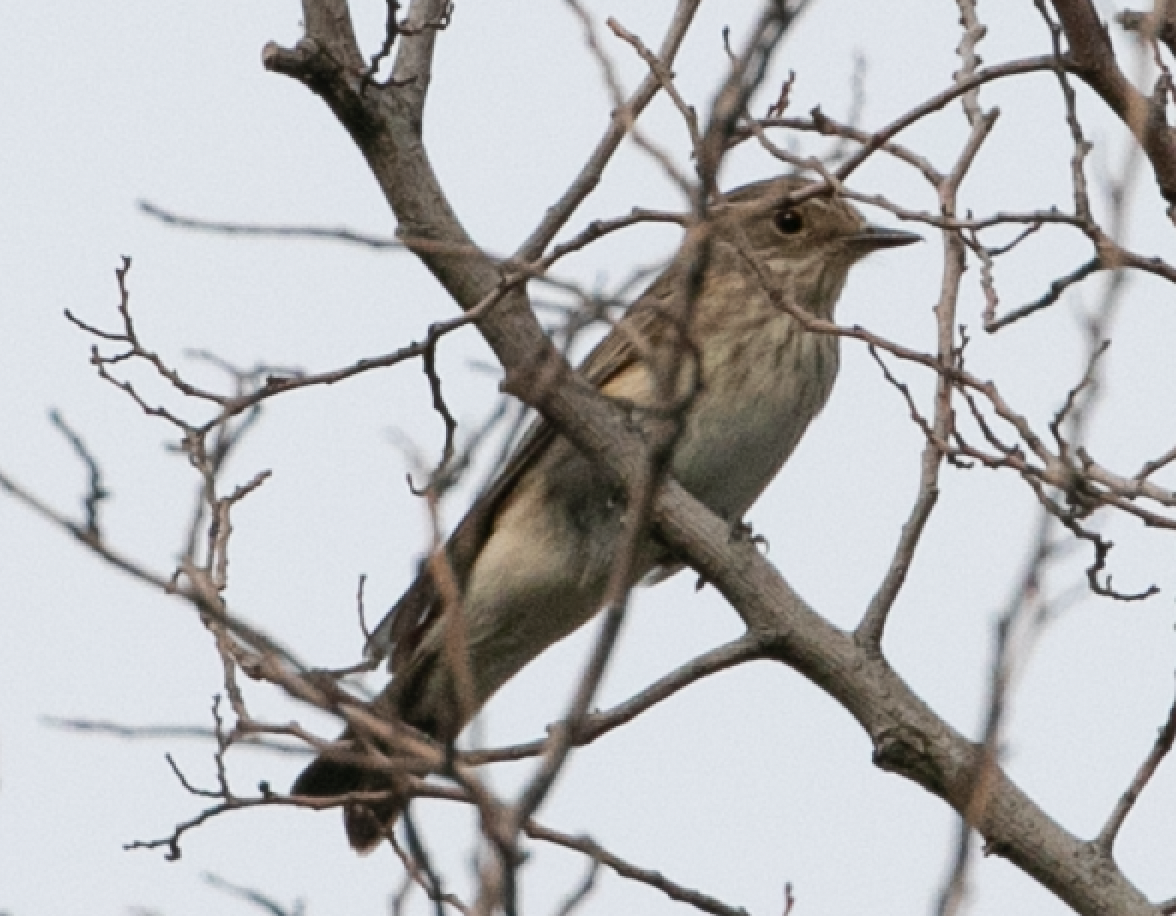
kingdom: Animalia
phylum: Chordata
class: Aves
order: Passeriformes
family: Muscicapidae
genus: Muscicapa
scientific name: Muscicapa striata
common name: Spotted flycatcher
